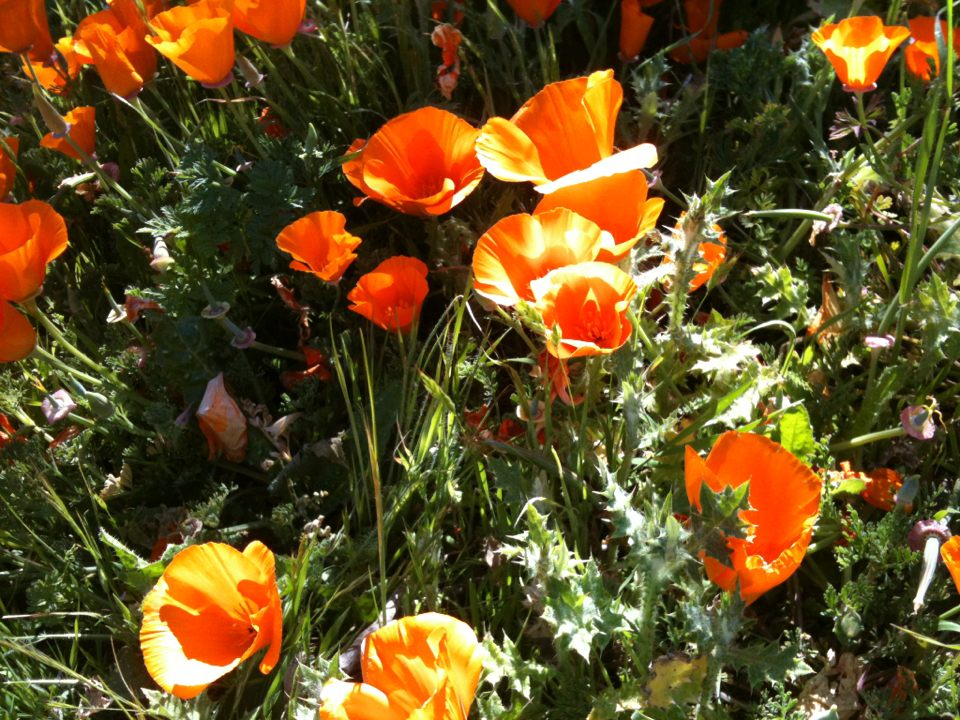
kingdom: Plantae
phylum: Tracheophyta
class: Magnoliopsida
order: Ranunculales
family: Papaveraceae
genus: Eschscholzia
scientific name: Eschscholzia californica
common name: California poppy
